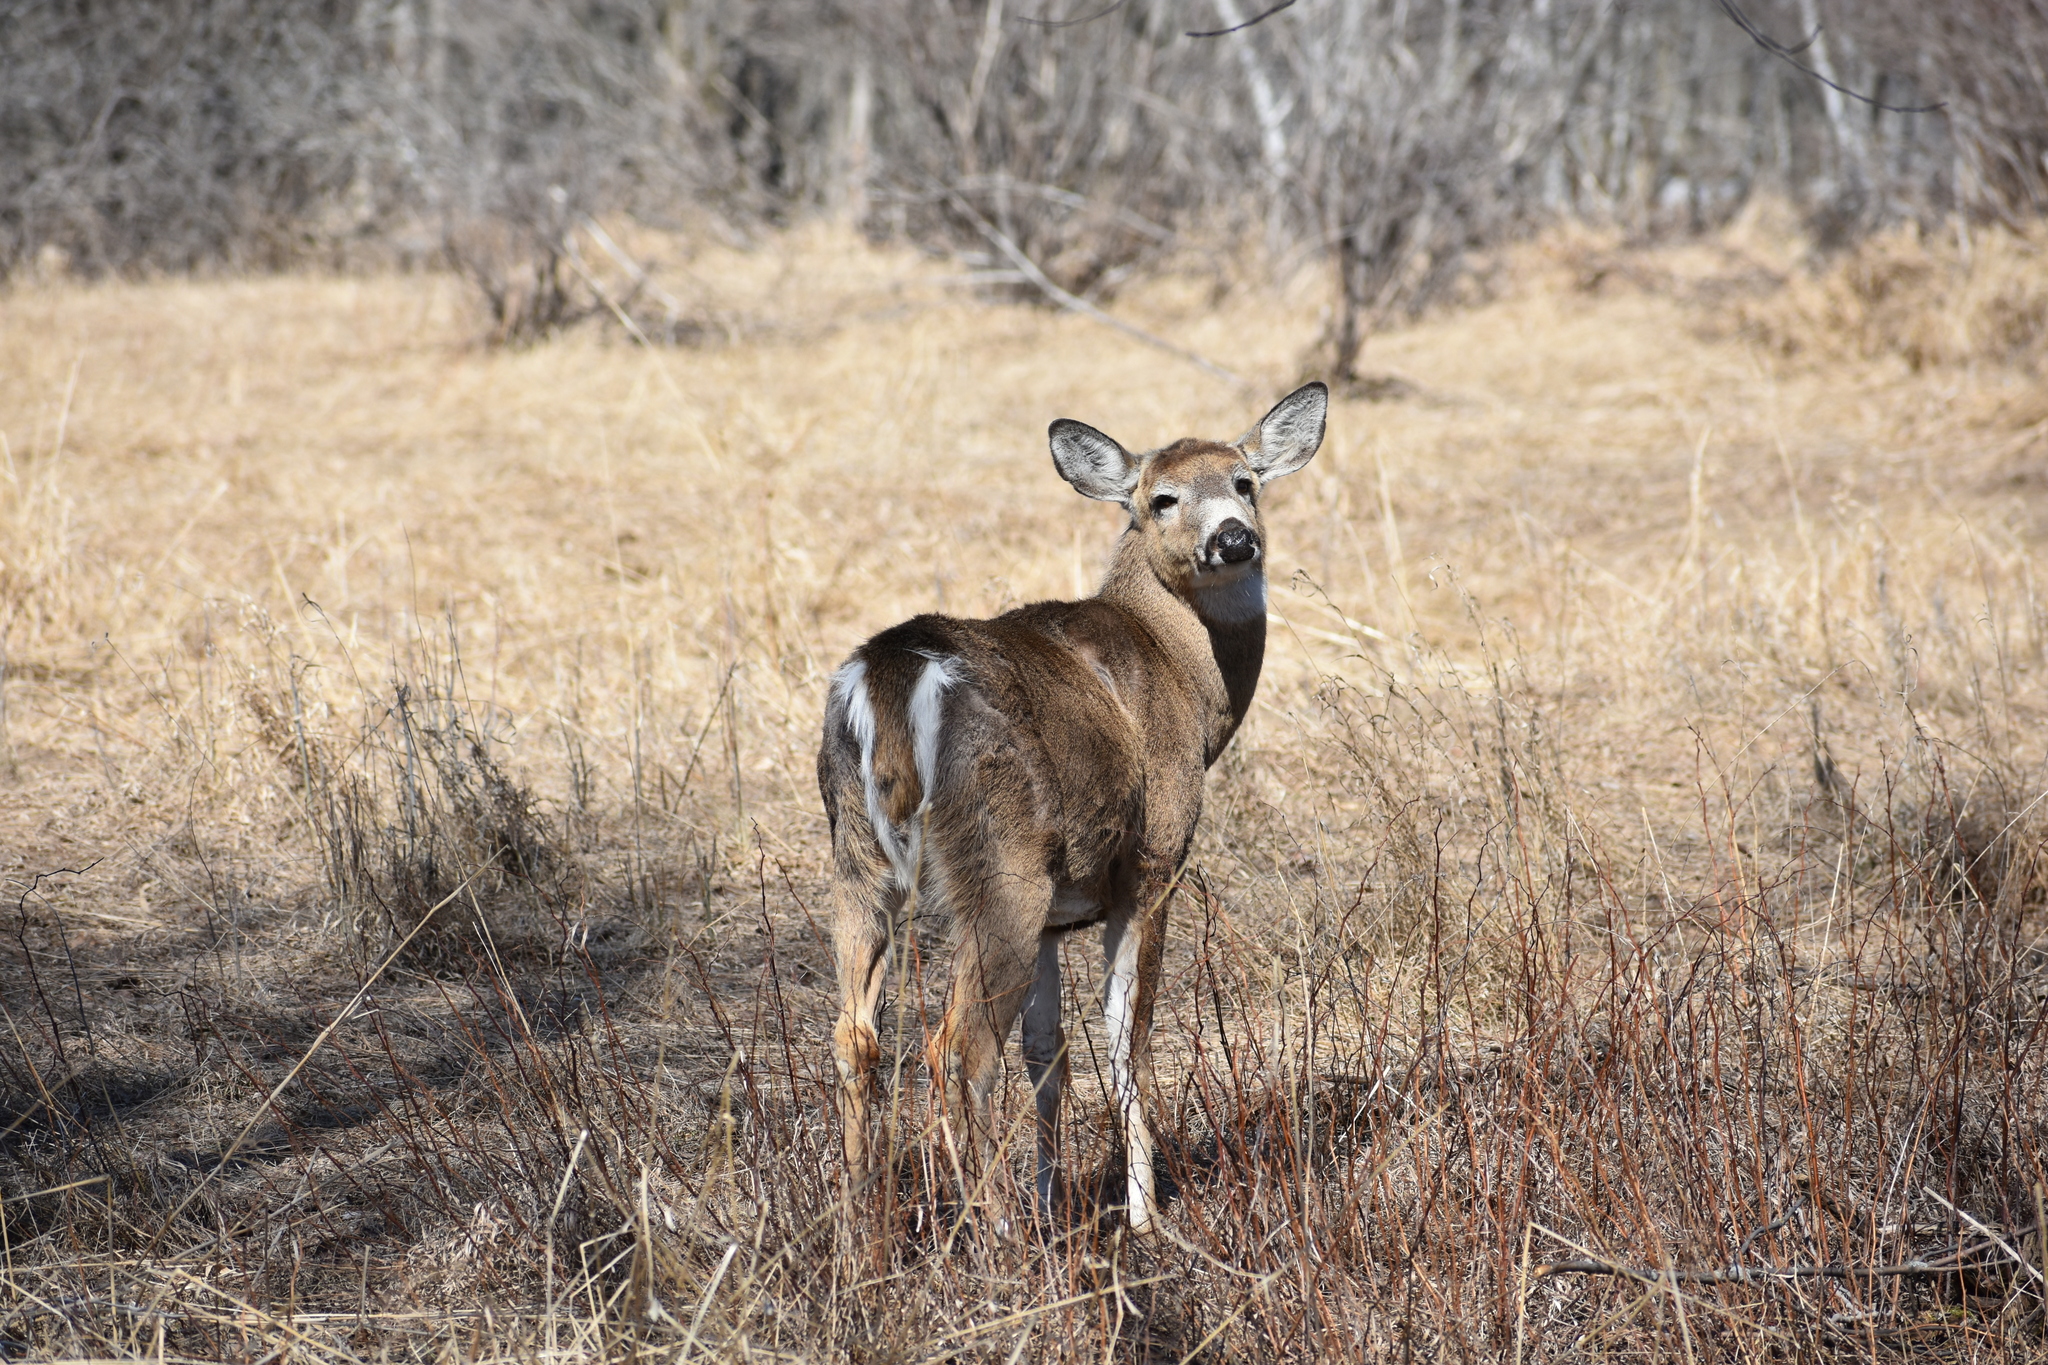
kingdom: Animalia
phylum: Chordata
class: Mammalia
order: Artiodactyla
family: Cervidae
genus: Odocoileus
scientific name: Odocoileus virginianus
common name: White-tailed deer
